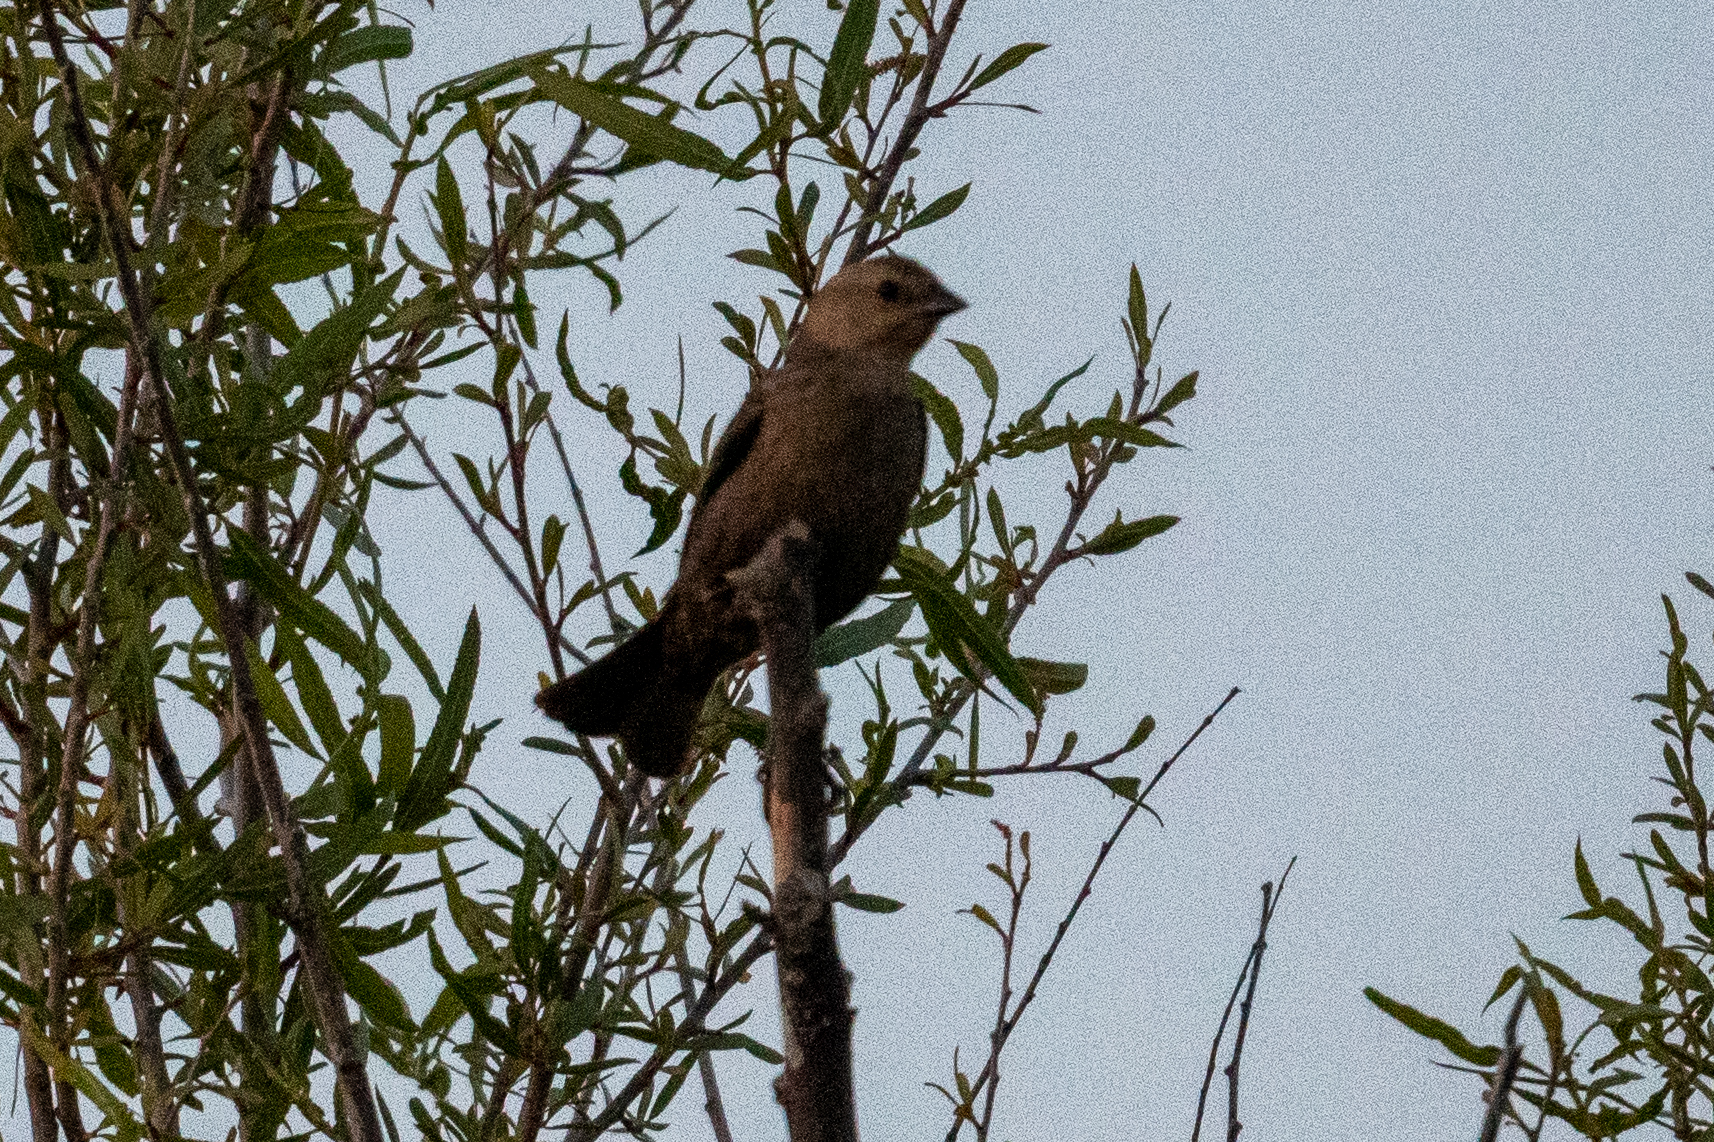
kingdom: Animalia
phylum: Chordata
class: Aves
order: Passeriformes
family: Icteridae
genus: Molothrus
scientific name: Molothrus ater
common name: Brown-headed cowbird
